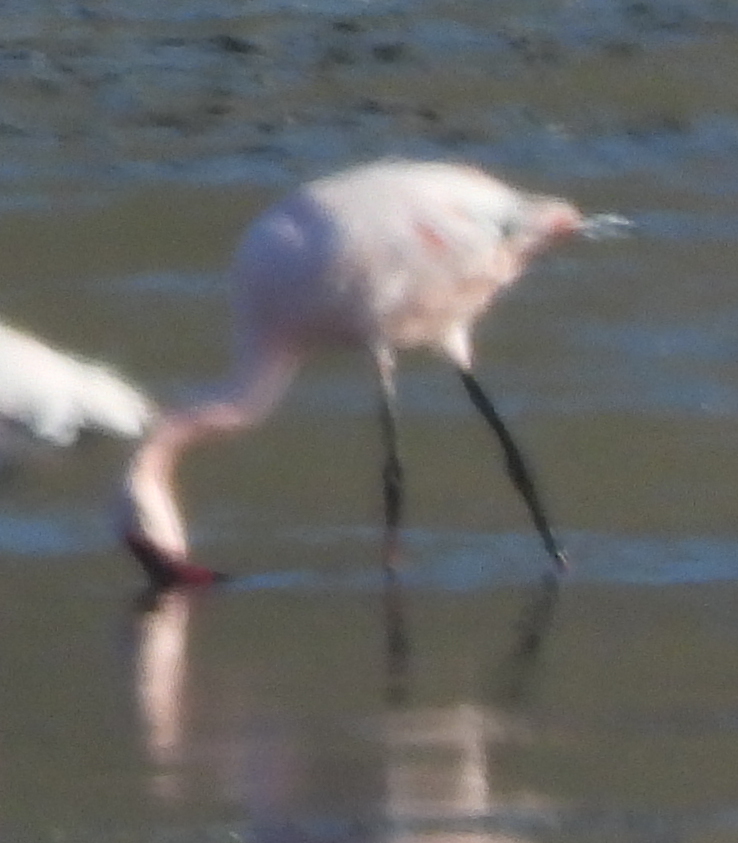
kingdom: Animalia
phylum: Chordata
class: Aves
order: Phoenicopteriformes
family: Phoenicopteridae
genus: Phoeniconaias
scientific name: Phoeniconaias minor
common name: Lesser flamingo
